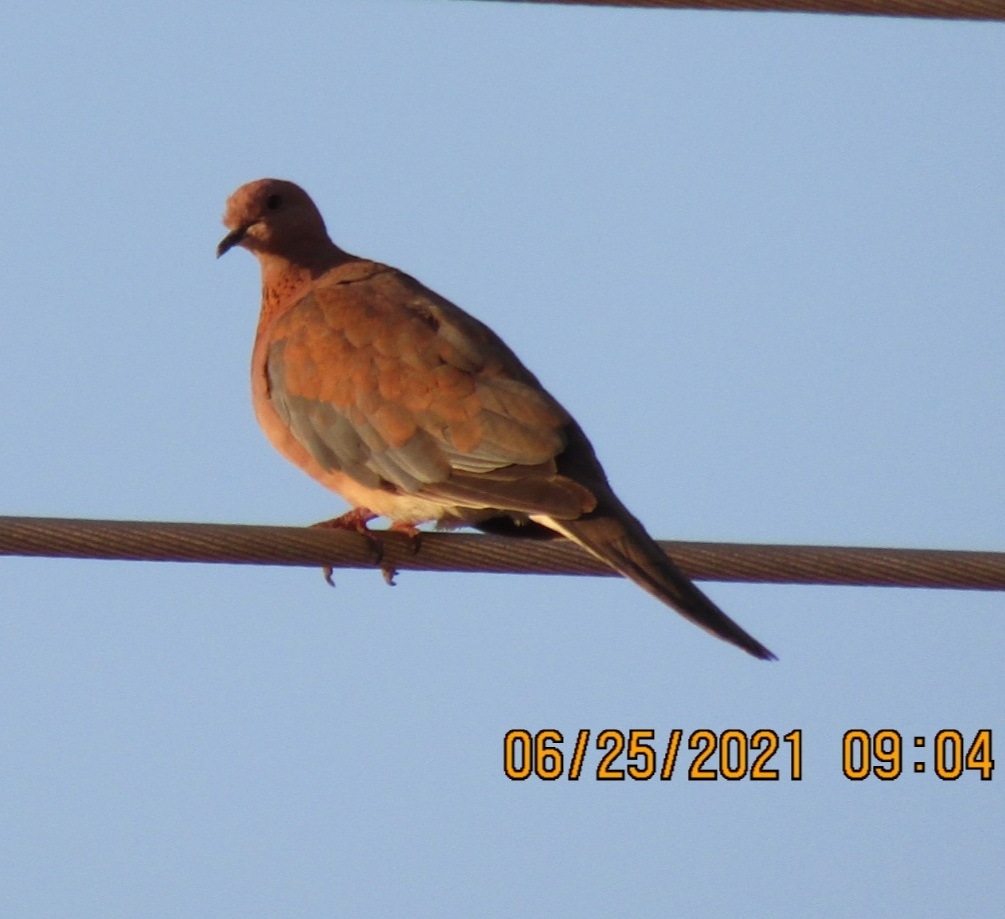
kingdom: Animalia
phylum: Chordata
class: Aves
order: Columbiformes
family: Columbidae
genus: Spilopelia
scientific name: Spilopelia senegalensis
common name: Laughing dove
